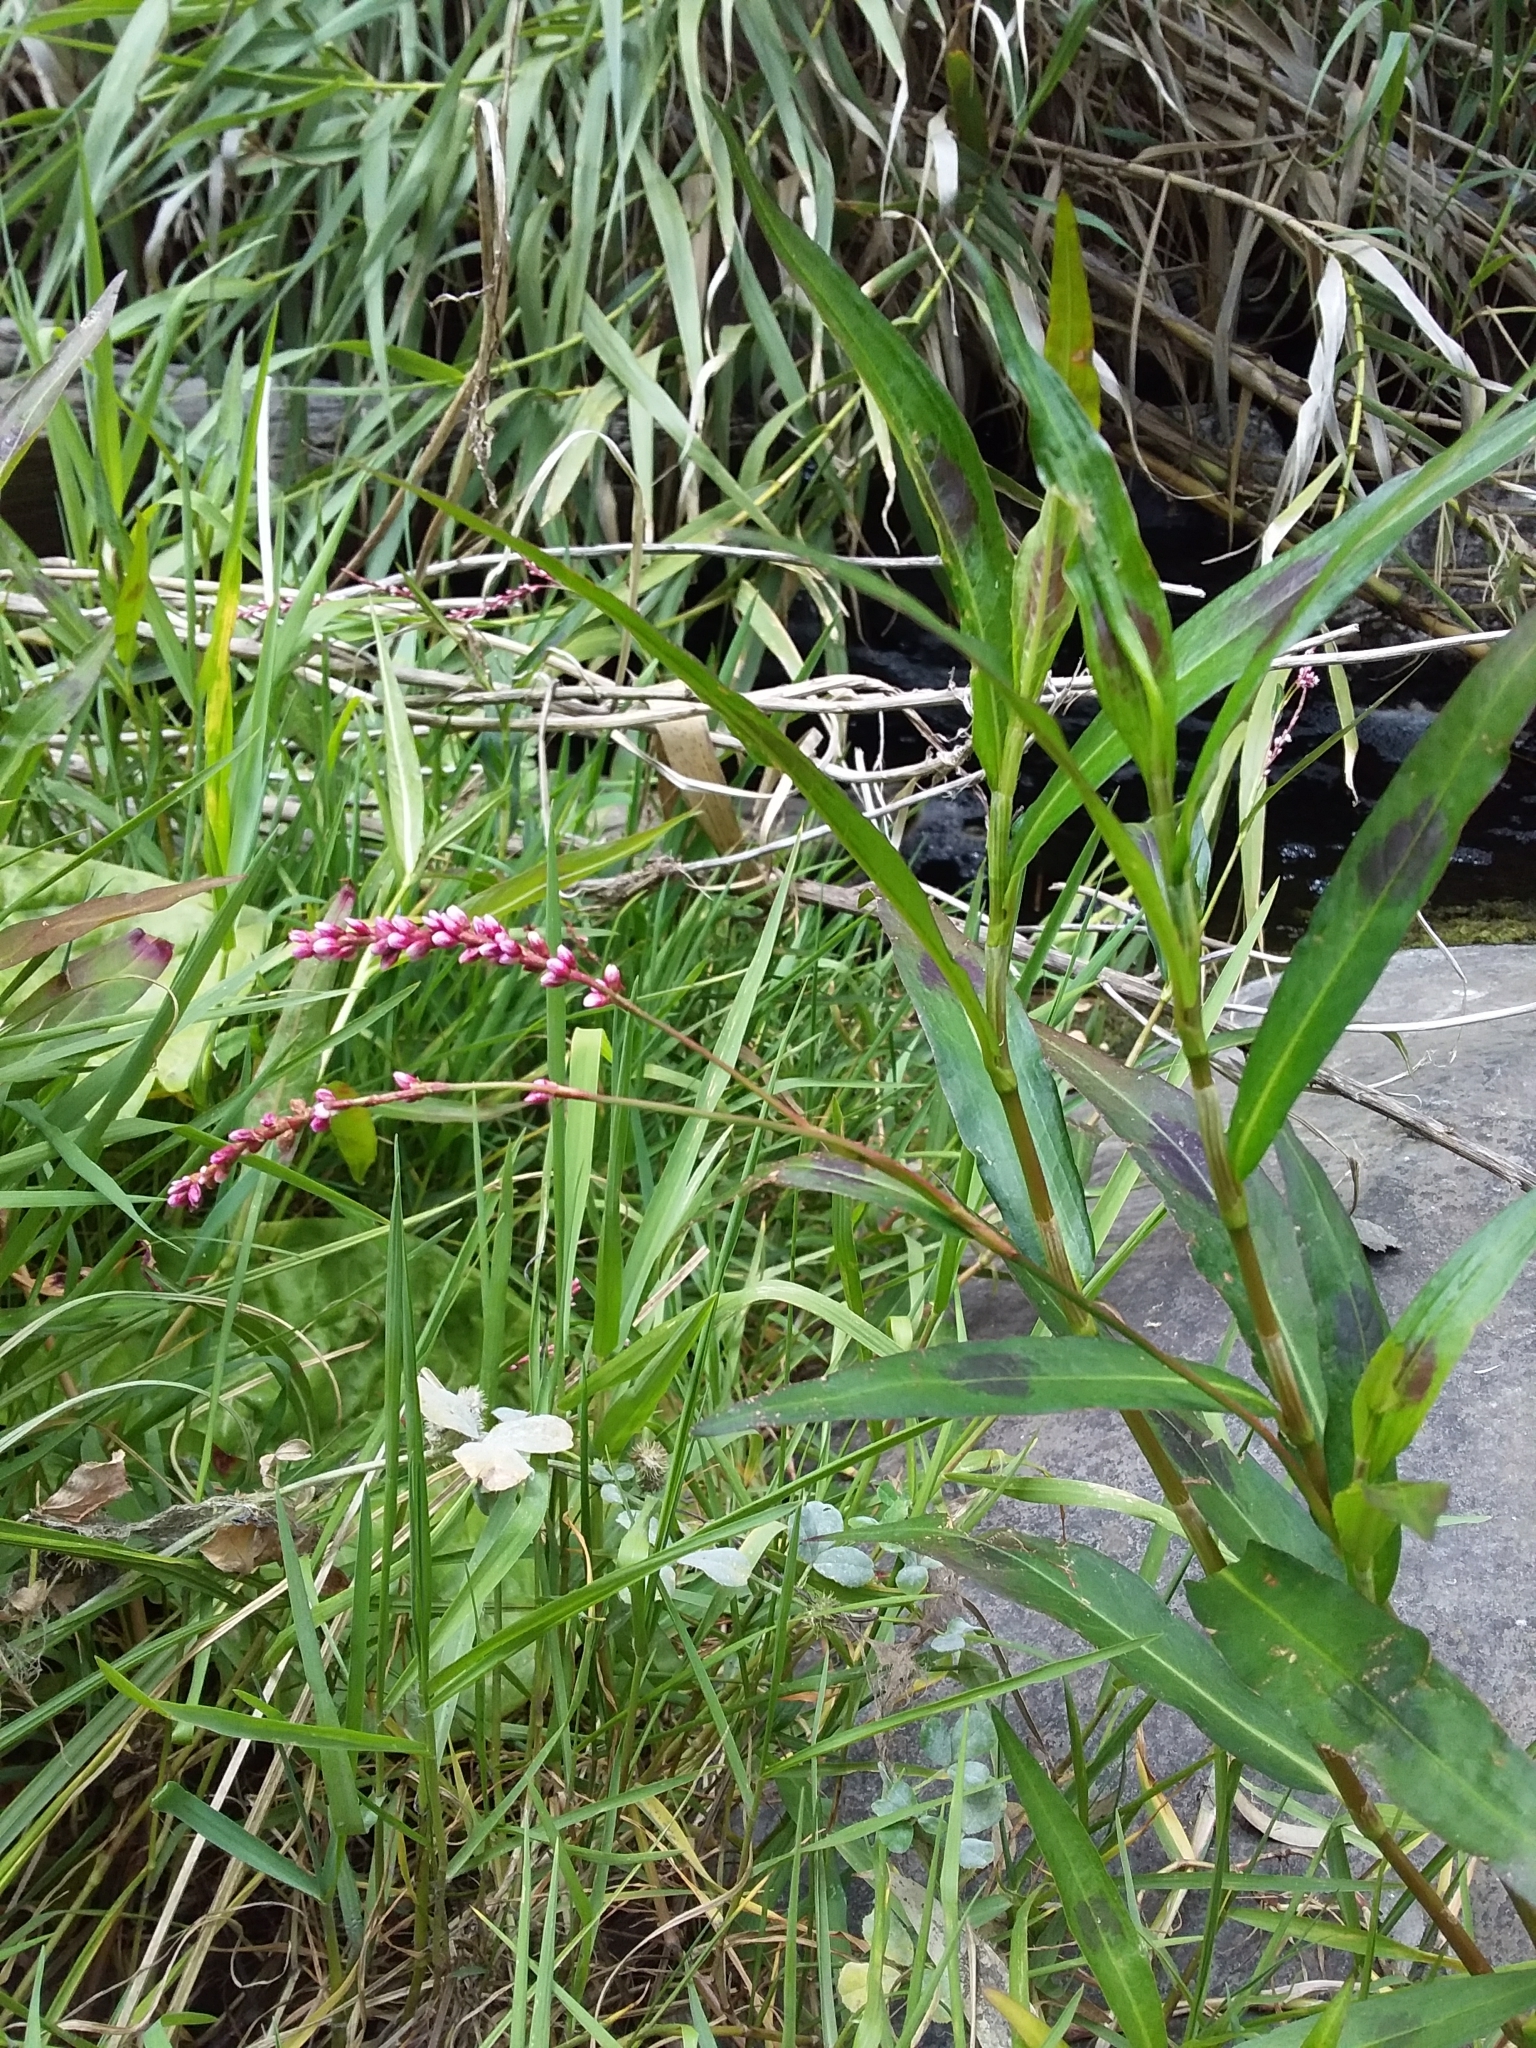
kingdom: Plantae
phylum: Tracheophyta
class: Magnoliopsida
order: Caryophyllales
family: Polygonaceae
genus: Persicaria
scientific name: Persicaria decipiens
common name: Willow-weed
